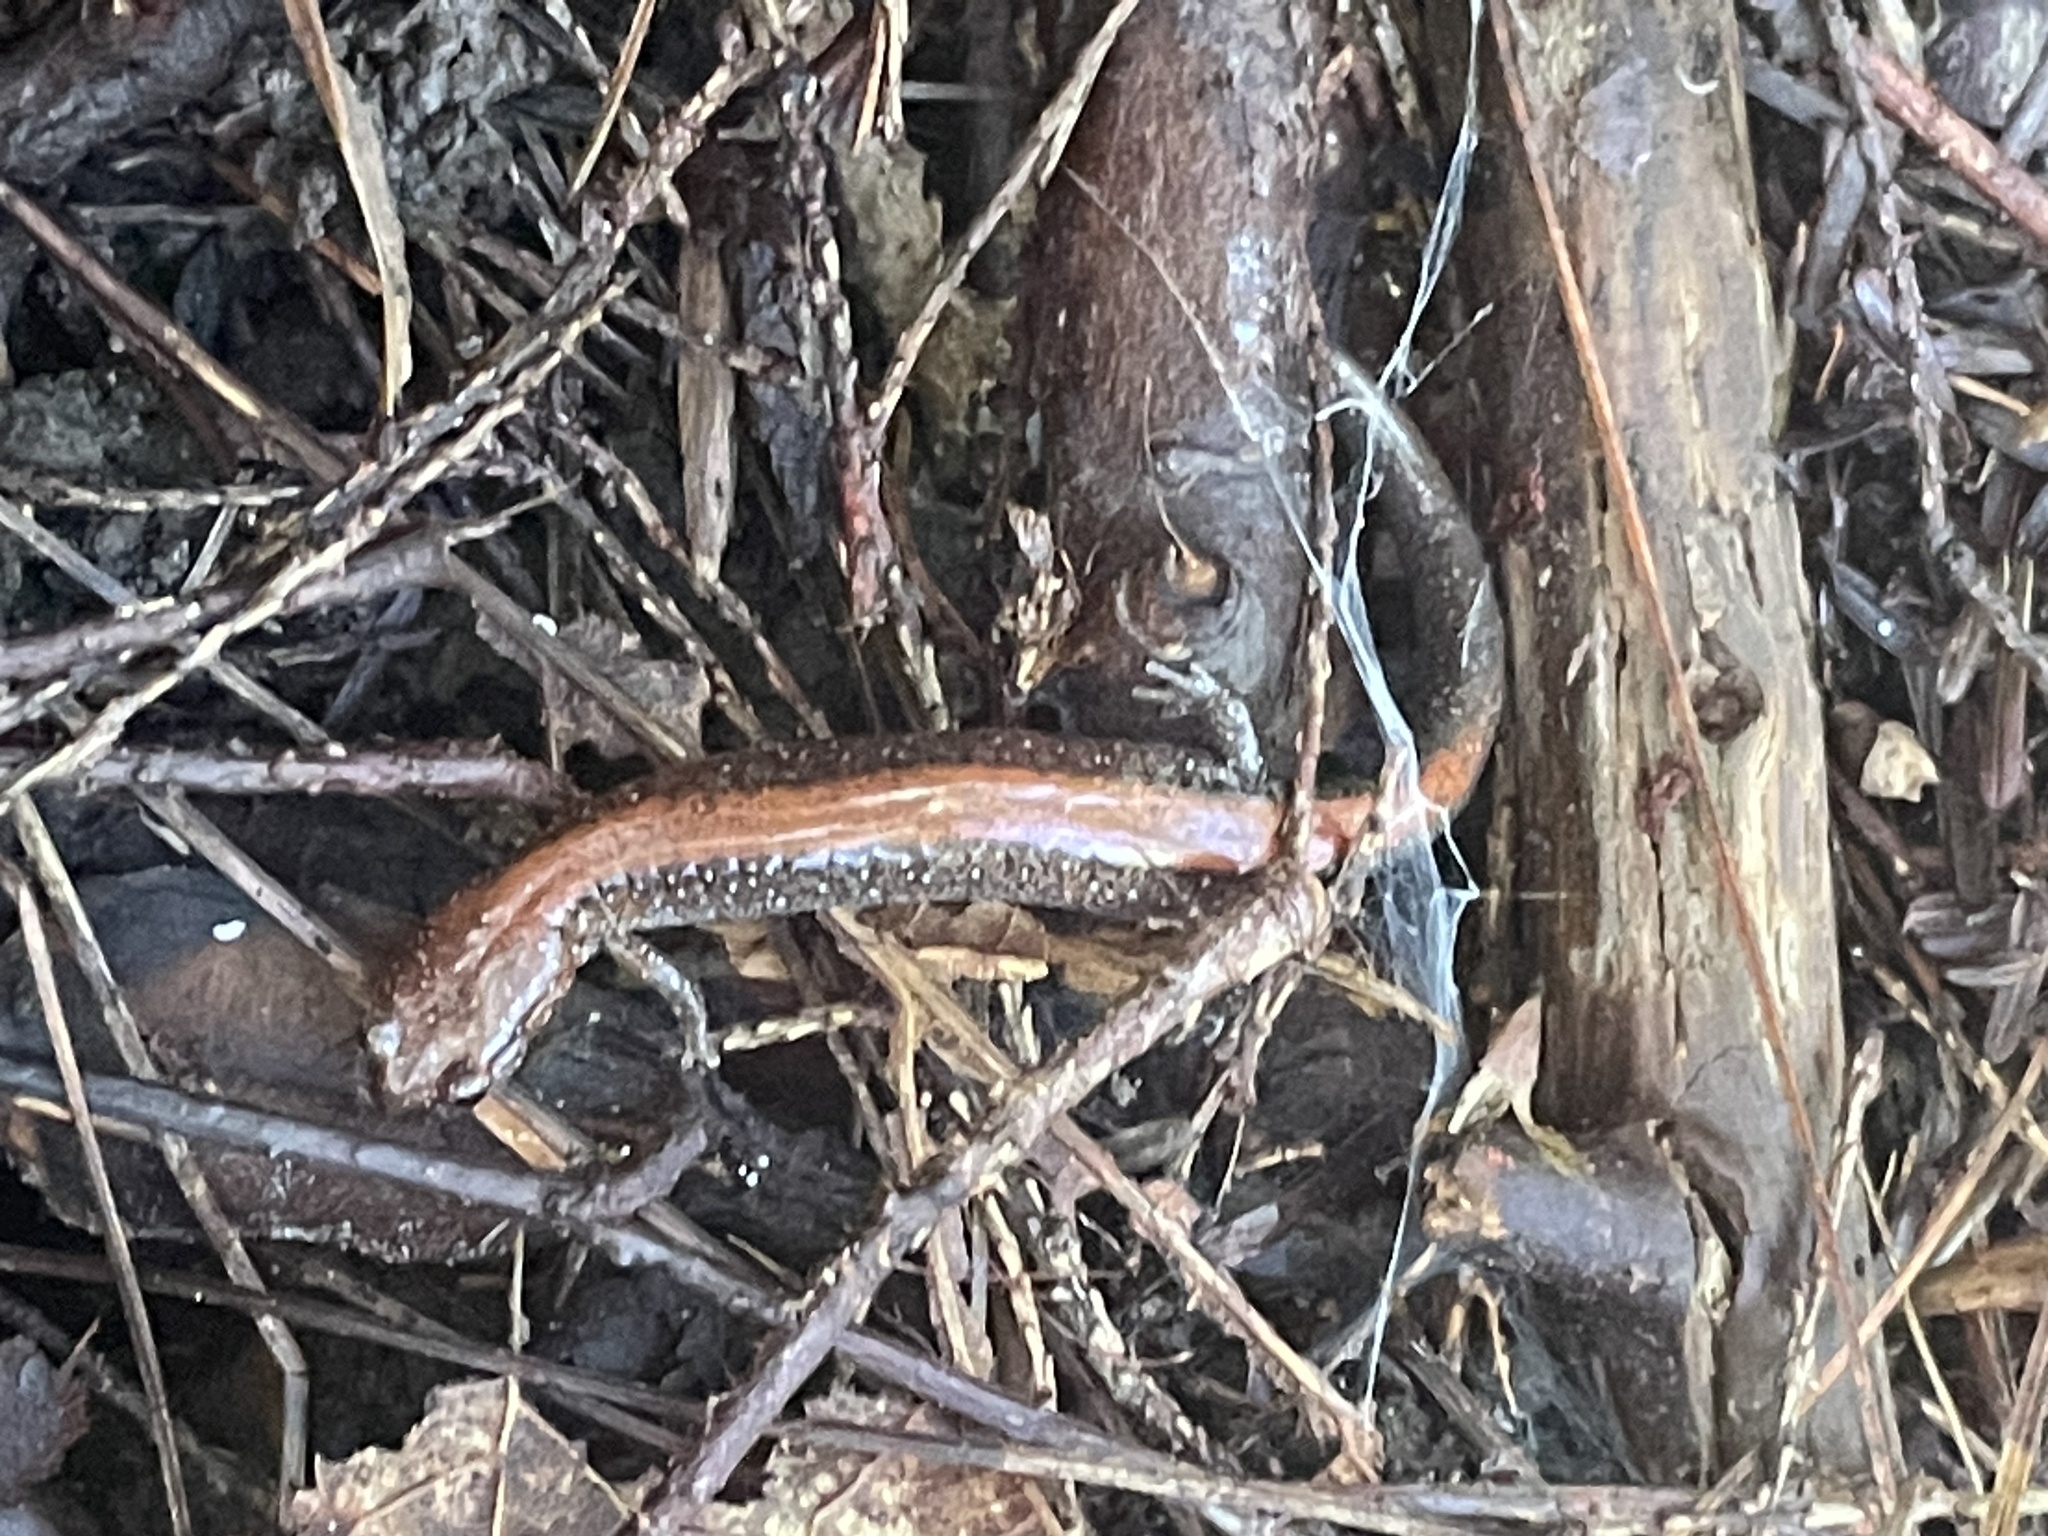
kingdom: Animalia
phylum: Chordata
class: Amphibia
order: Caudata
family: Plethodontidae
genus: Plethodon
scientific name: Plethodon cinereus
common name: Redback salamander
